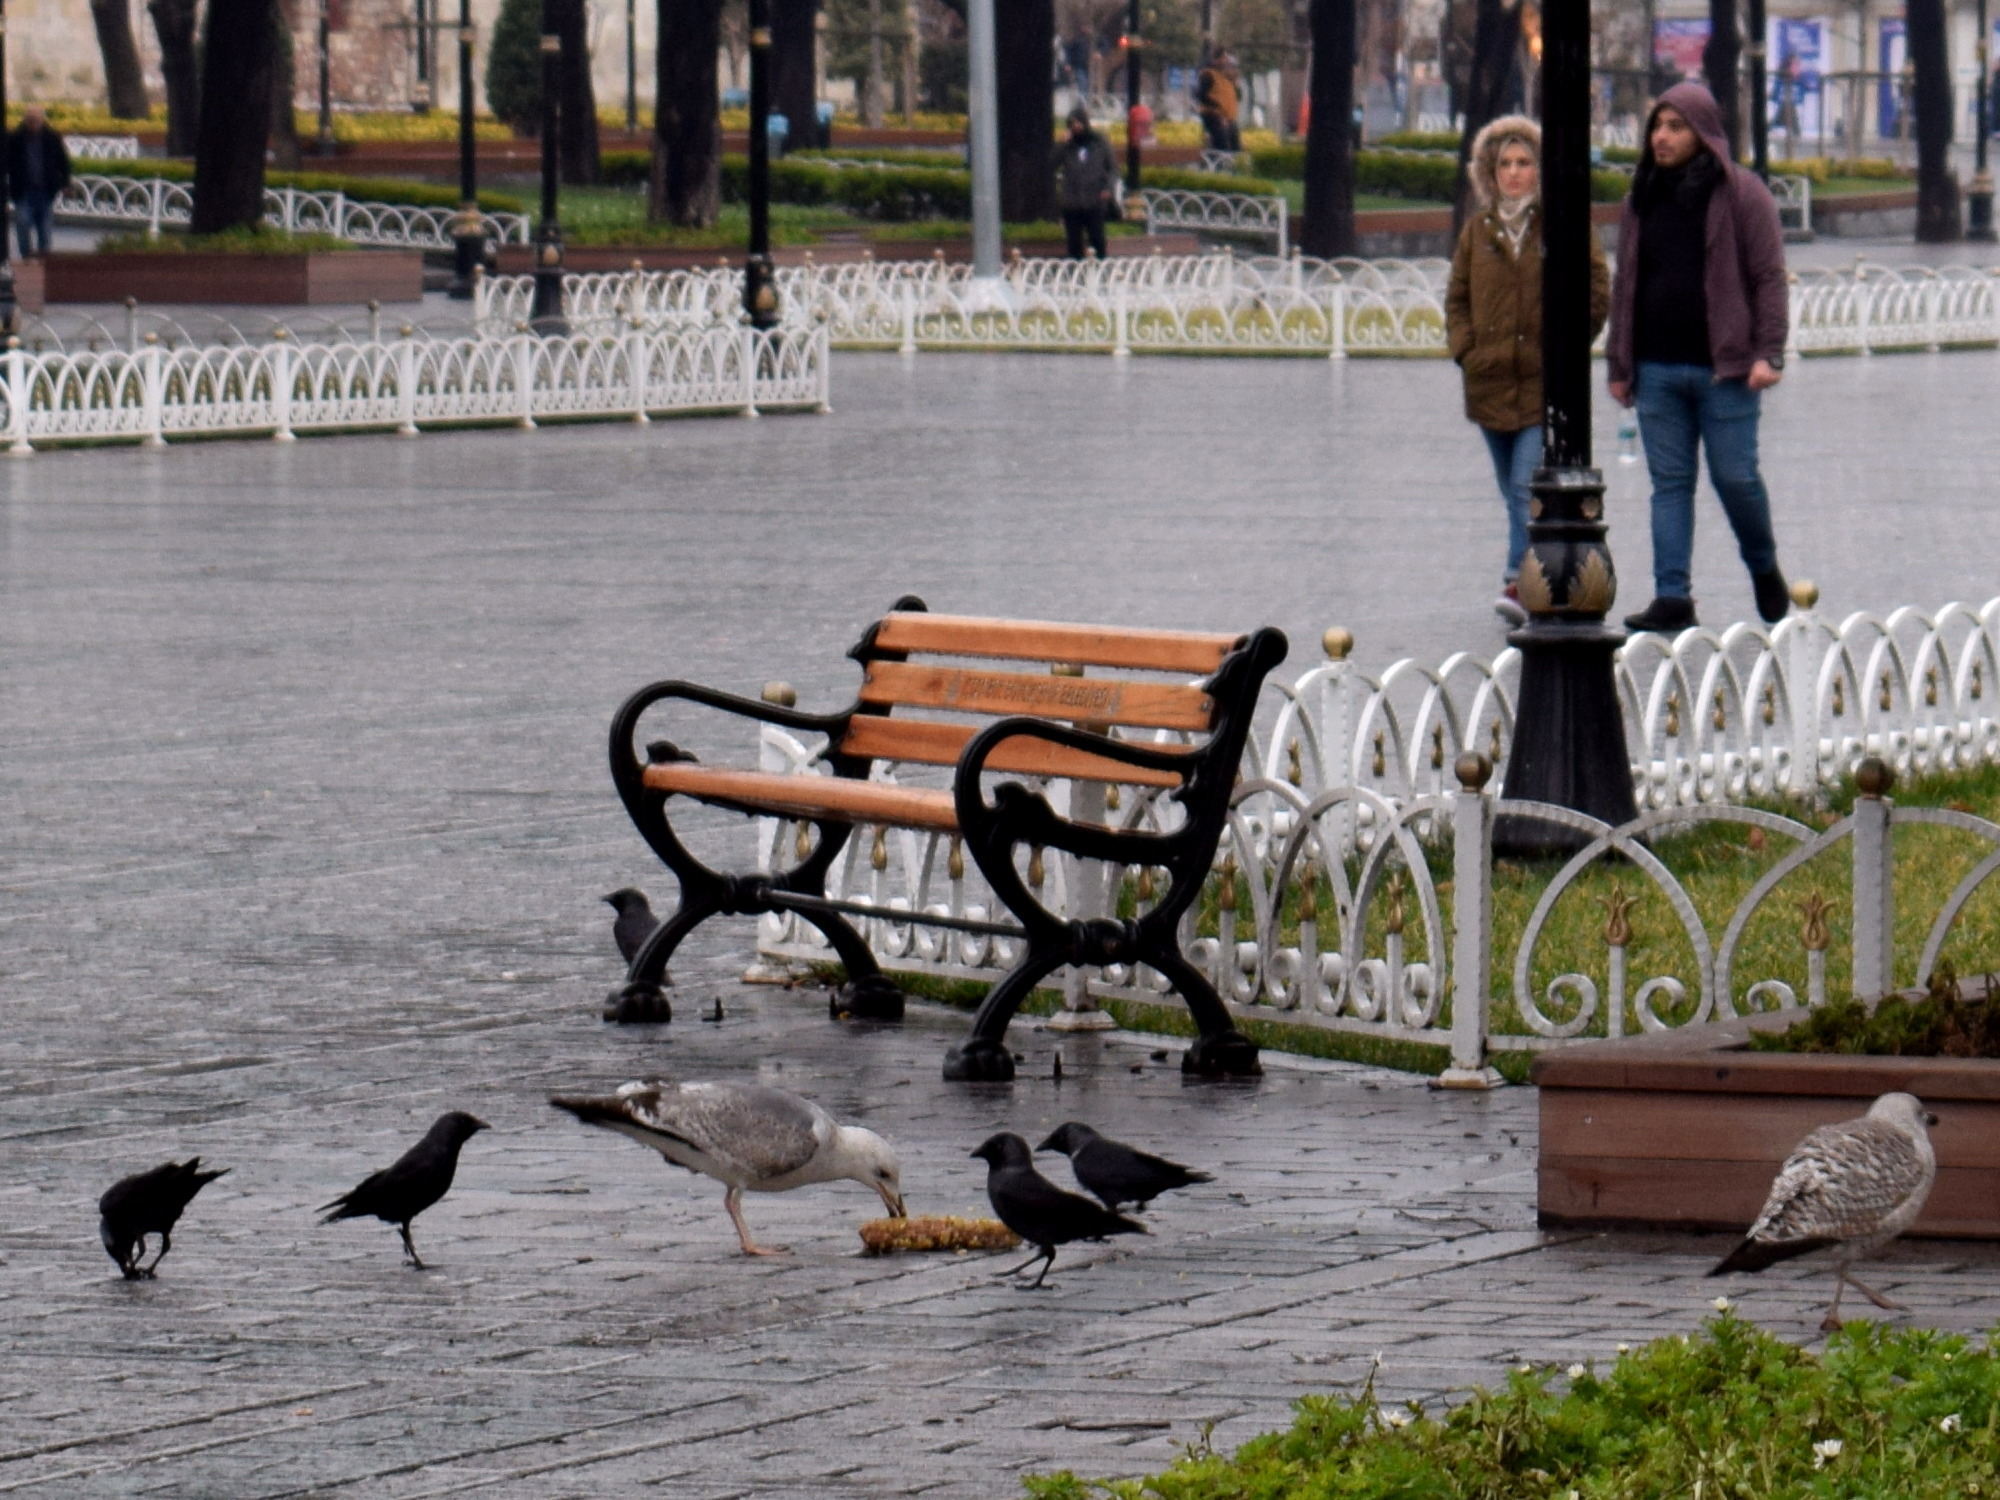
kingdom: Animalia
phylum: Chordata
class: Aves
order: Charadriiformes
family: Laridae
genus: Larus
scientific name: Larus michahellis
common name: Yellow-legged gull
